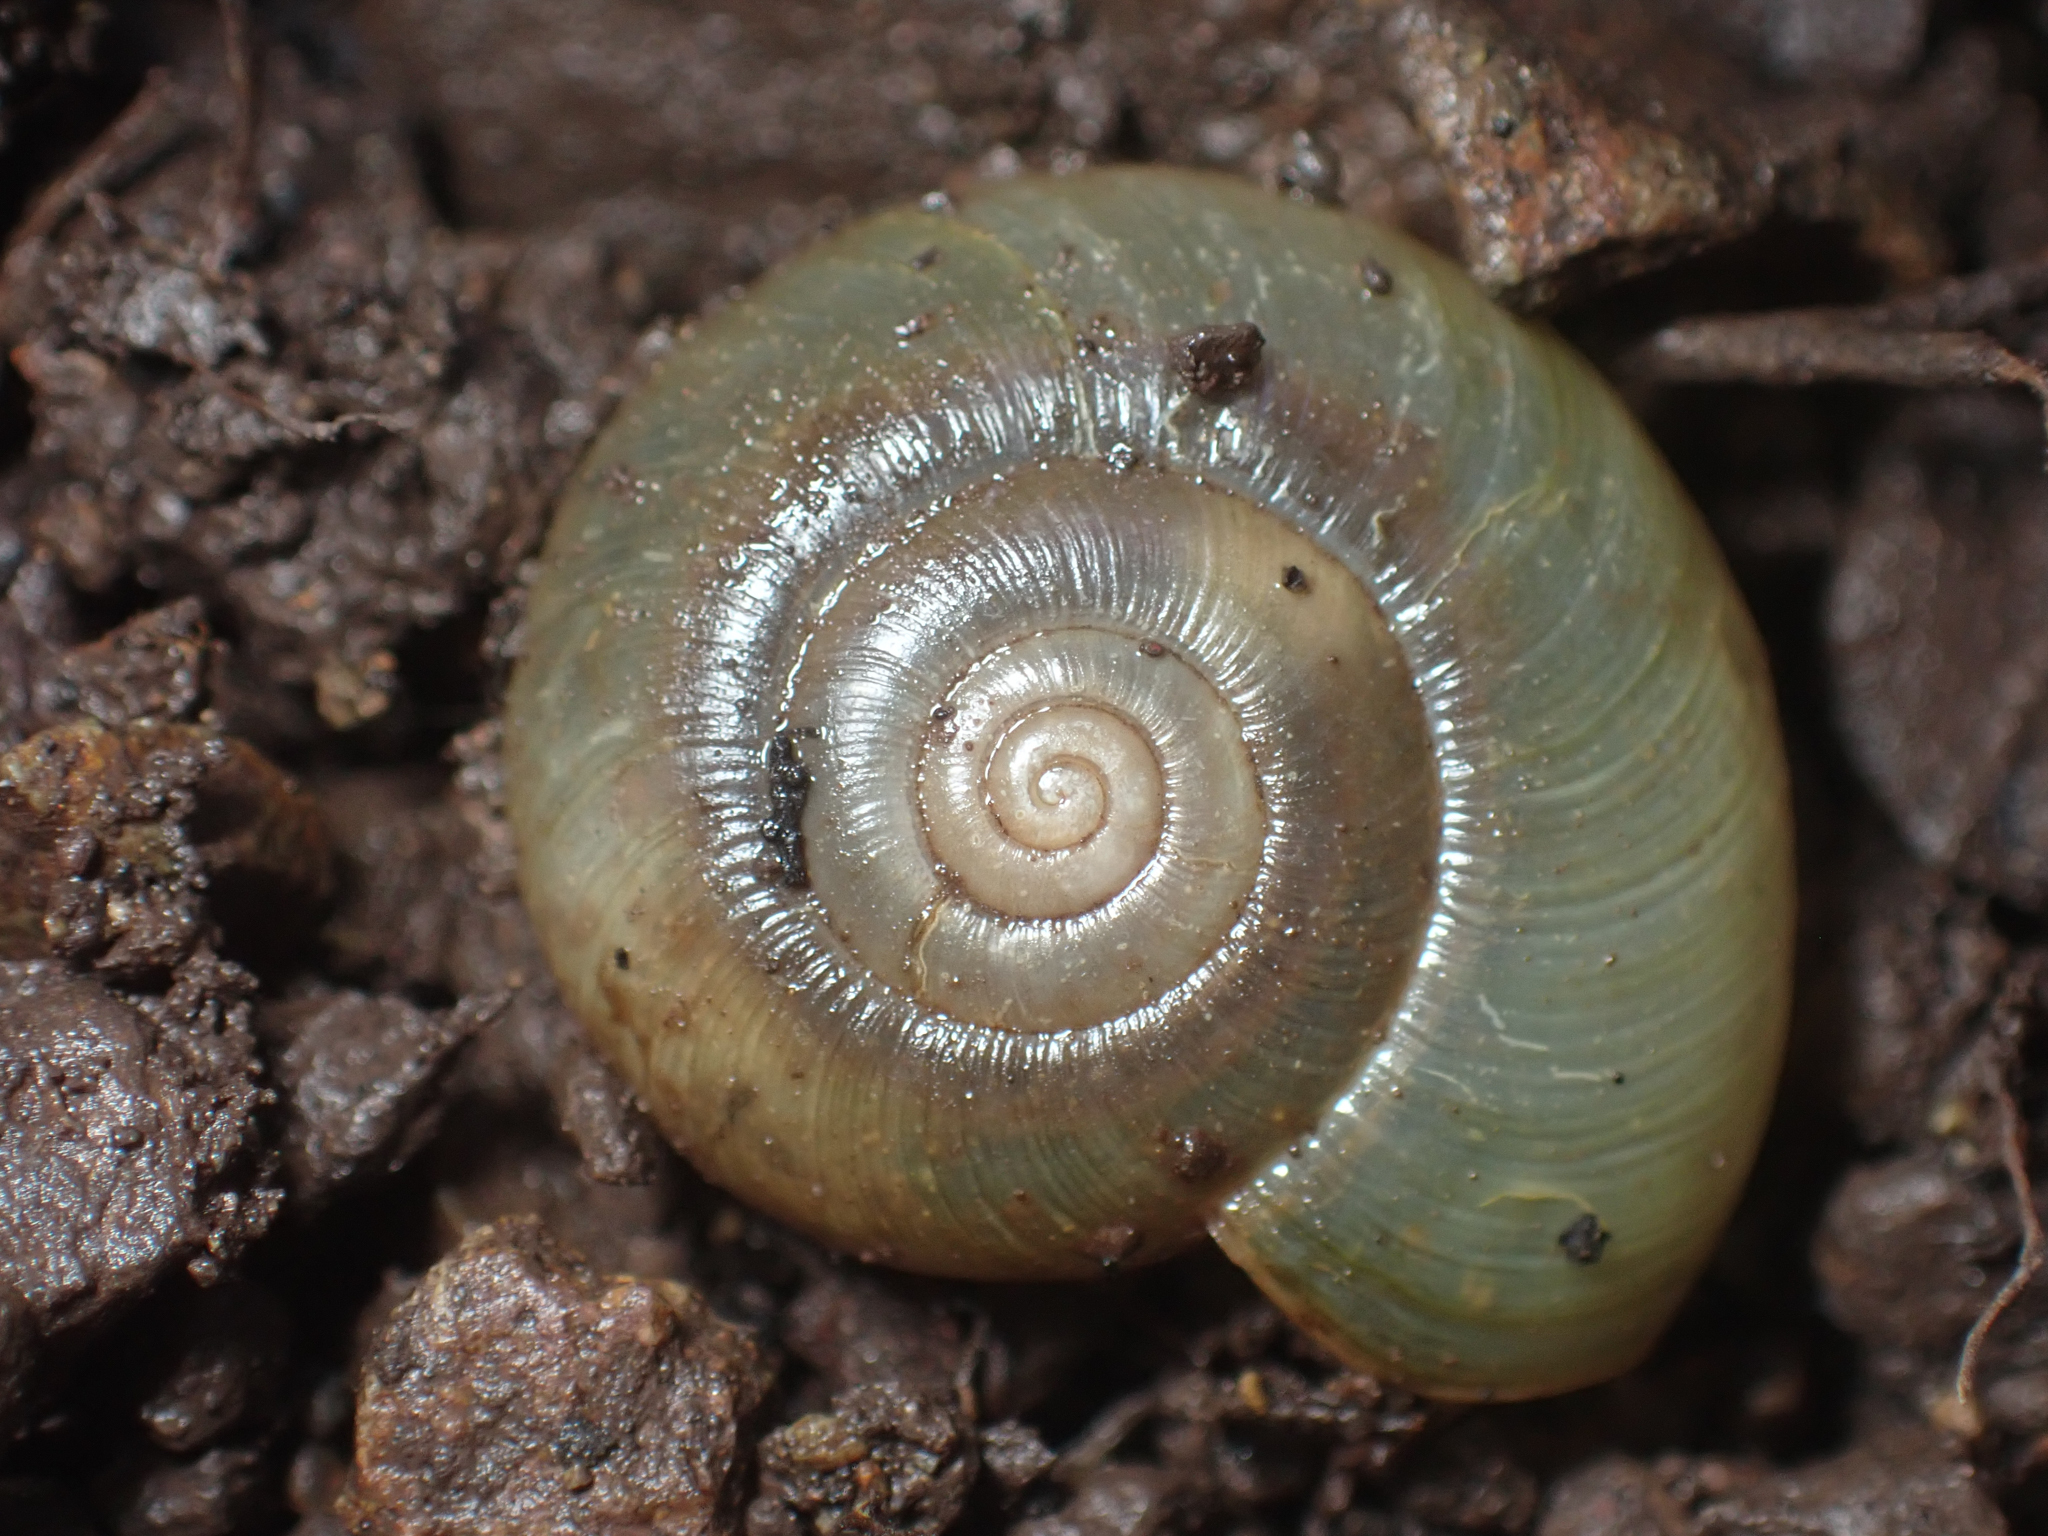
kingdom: Animalia
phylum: Mollusca
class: Gastropoda
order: Stylommatophora
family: Haplotrematidae
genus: Haplotrema
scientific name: Haplotrema minimum
